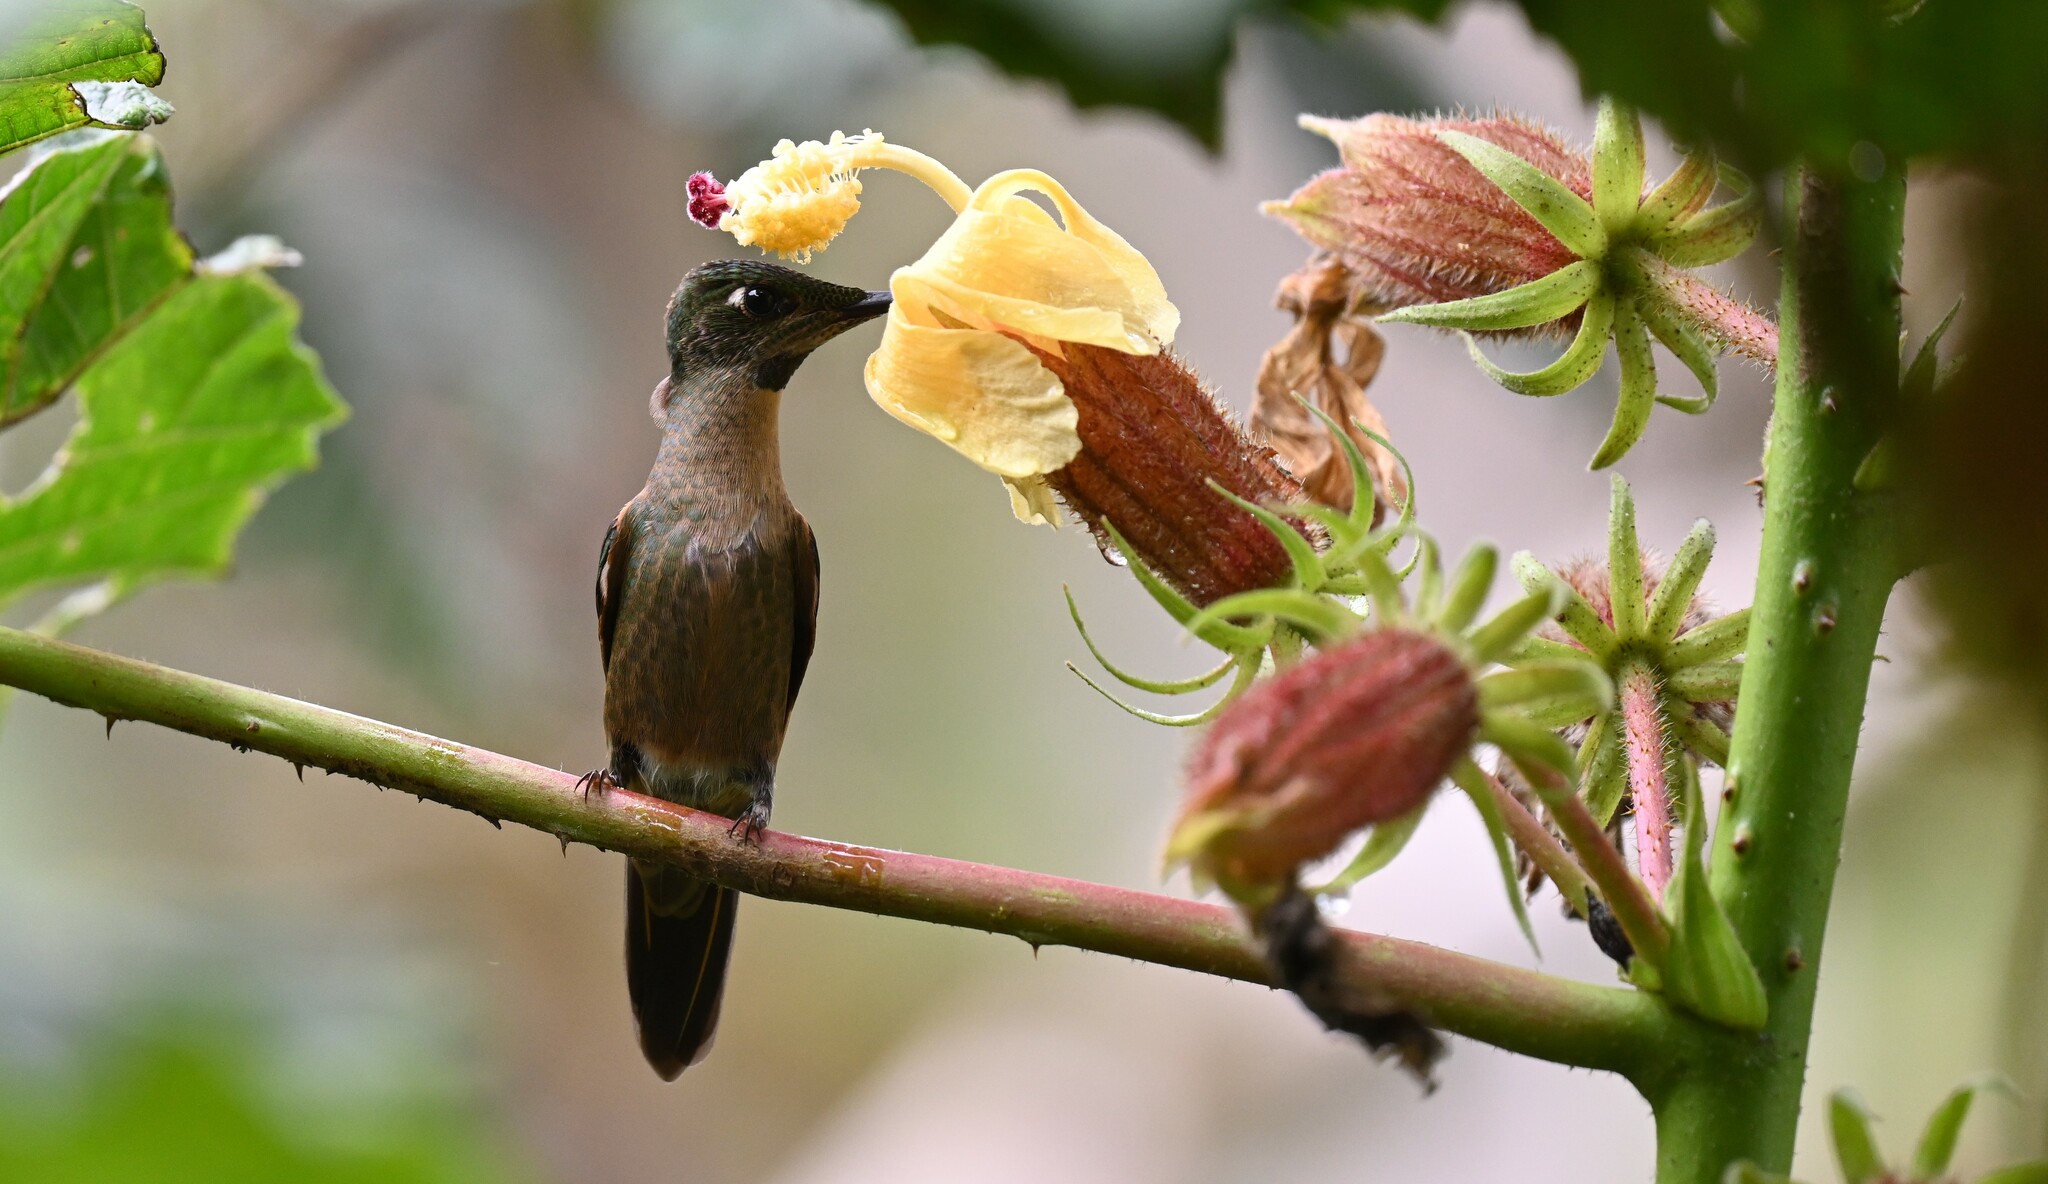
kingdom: Animalia
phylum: Chordata
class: Aves
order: Apodiformes
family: Trochilidae
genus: Heliodoxa
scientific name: Heliodoxa rubinoides
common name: Fawn-breasted brilliant
